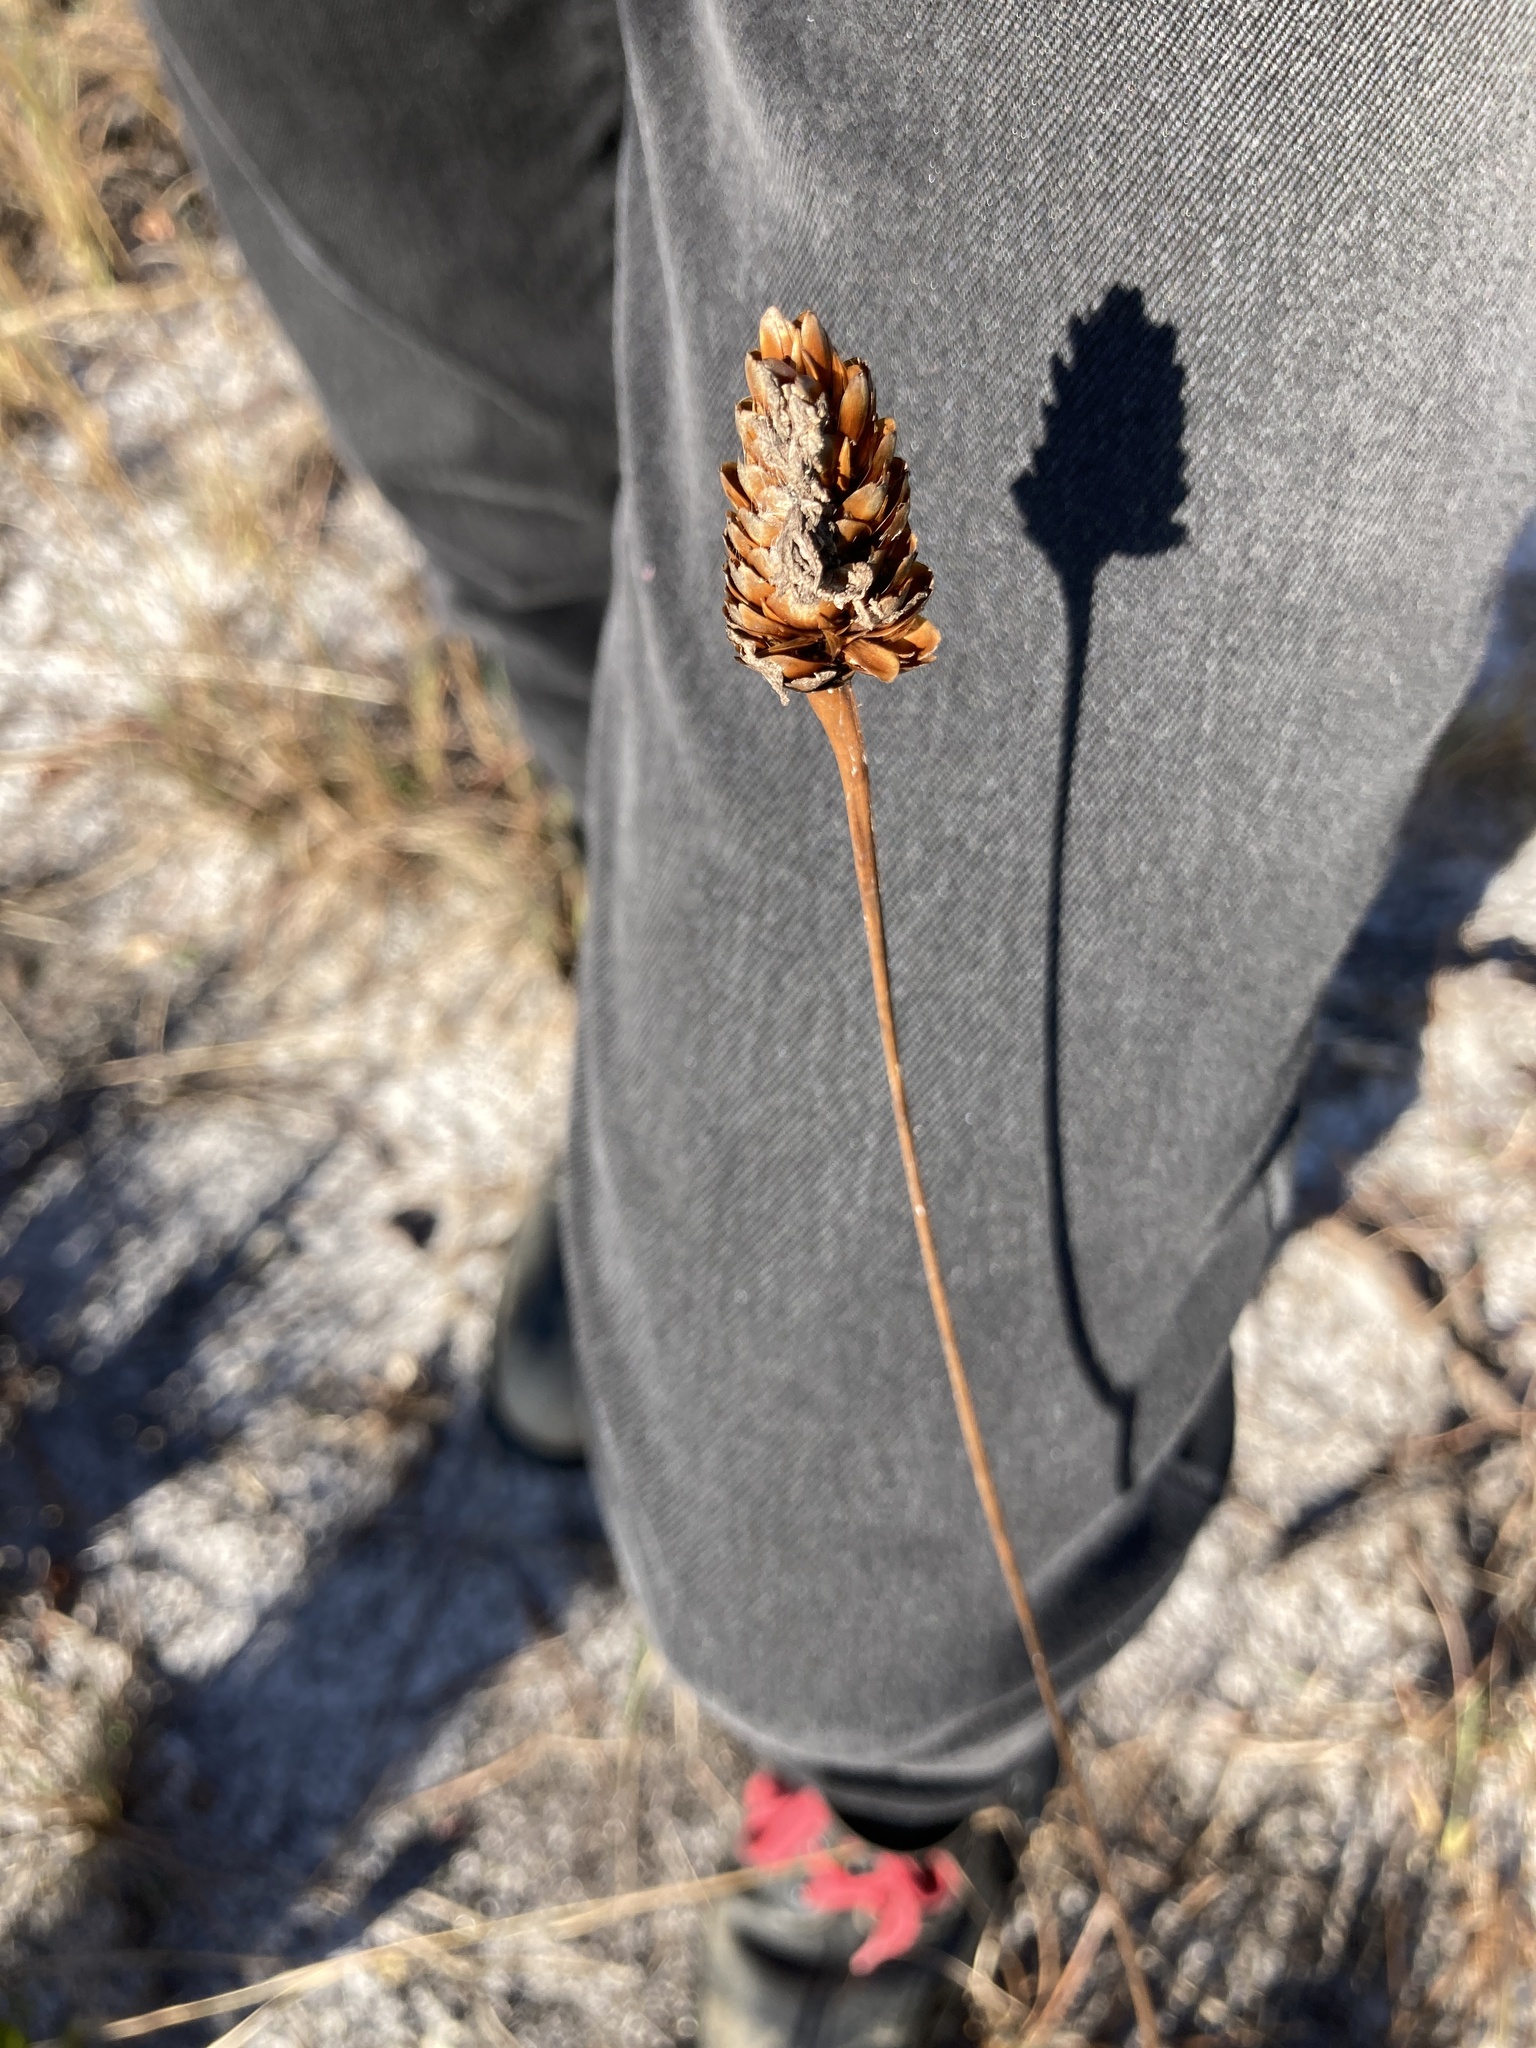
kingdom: Plantae
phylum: Tracheophyta
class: Liliopsida
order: Poales
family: Xyridaceae
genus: Xyris
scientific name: Xyris ambigua
